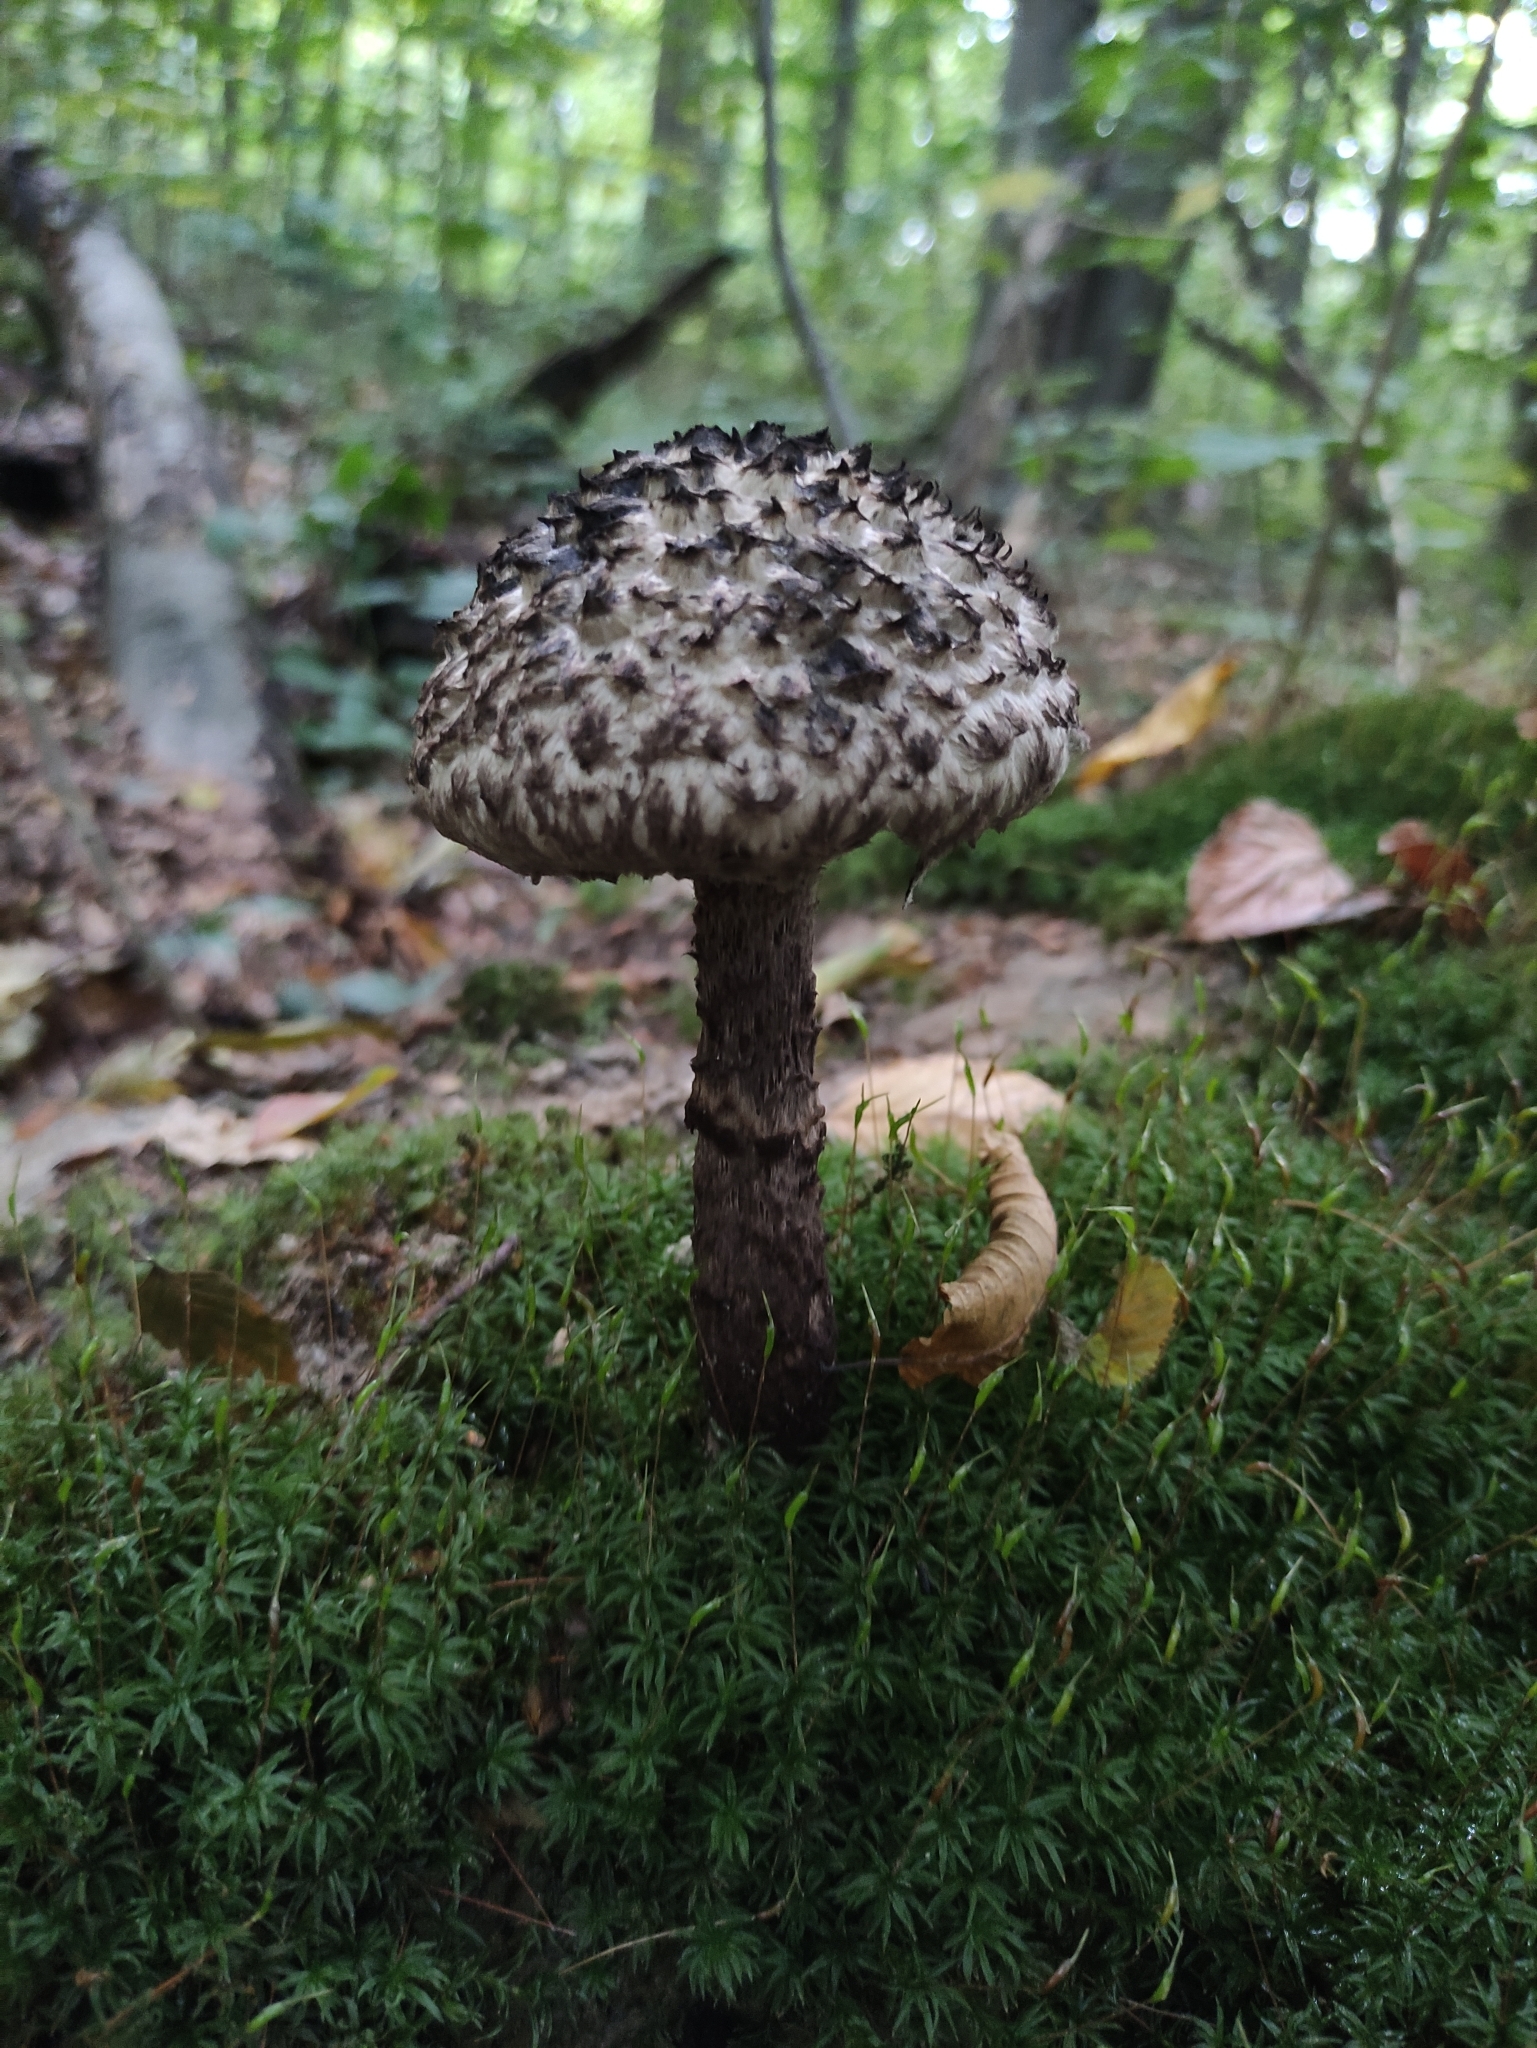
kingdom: Fungi
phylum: Basidiomycota
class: Agaricomycetes
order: Boletales
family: Boletaceae
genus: Strobilomyces
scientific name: Strobilomyces strobilaceus
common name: Old man of the woods
